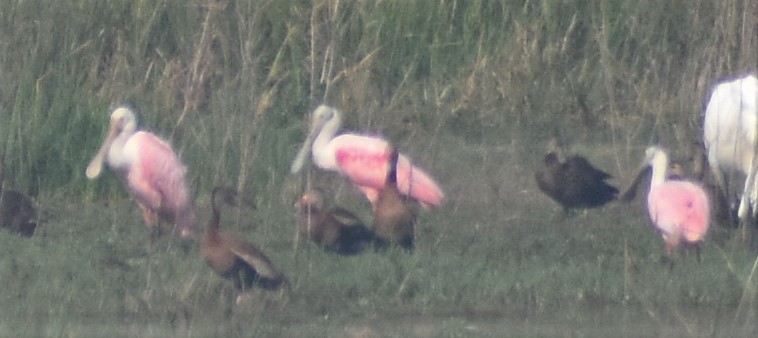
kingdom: Animalia
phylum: Chordata
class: Aves
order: Pelecaniformes
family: Threskiornithidae
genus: Platalea
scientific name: Platalea ajaja
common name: Roseate spoonbill
